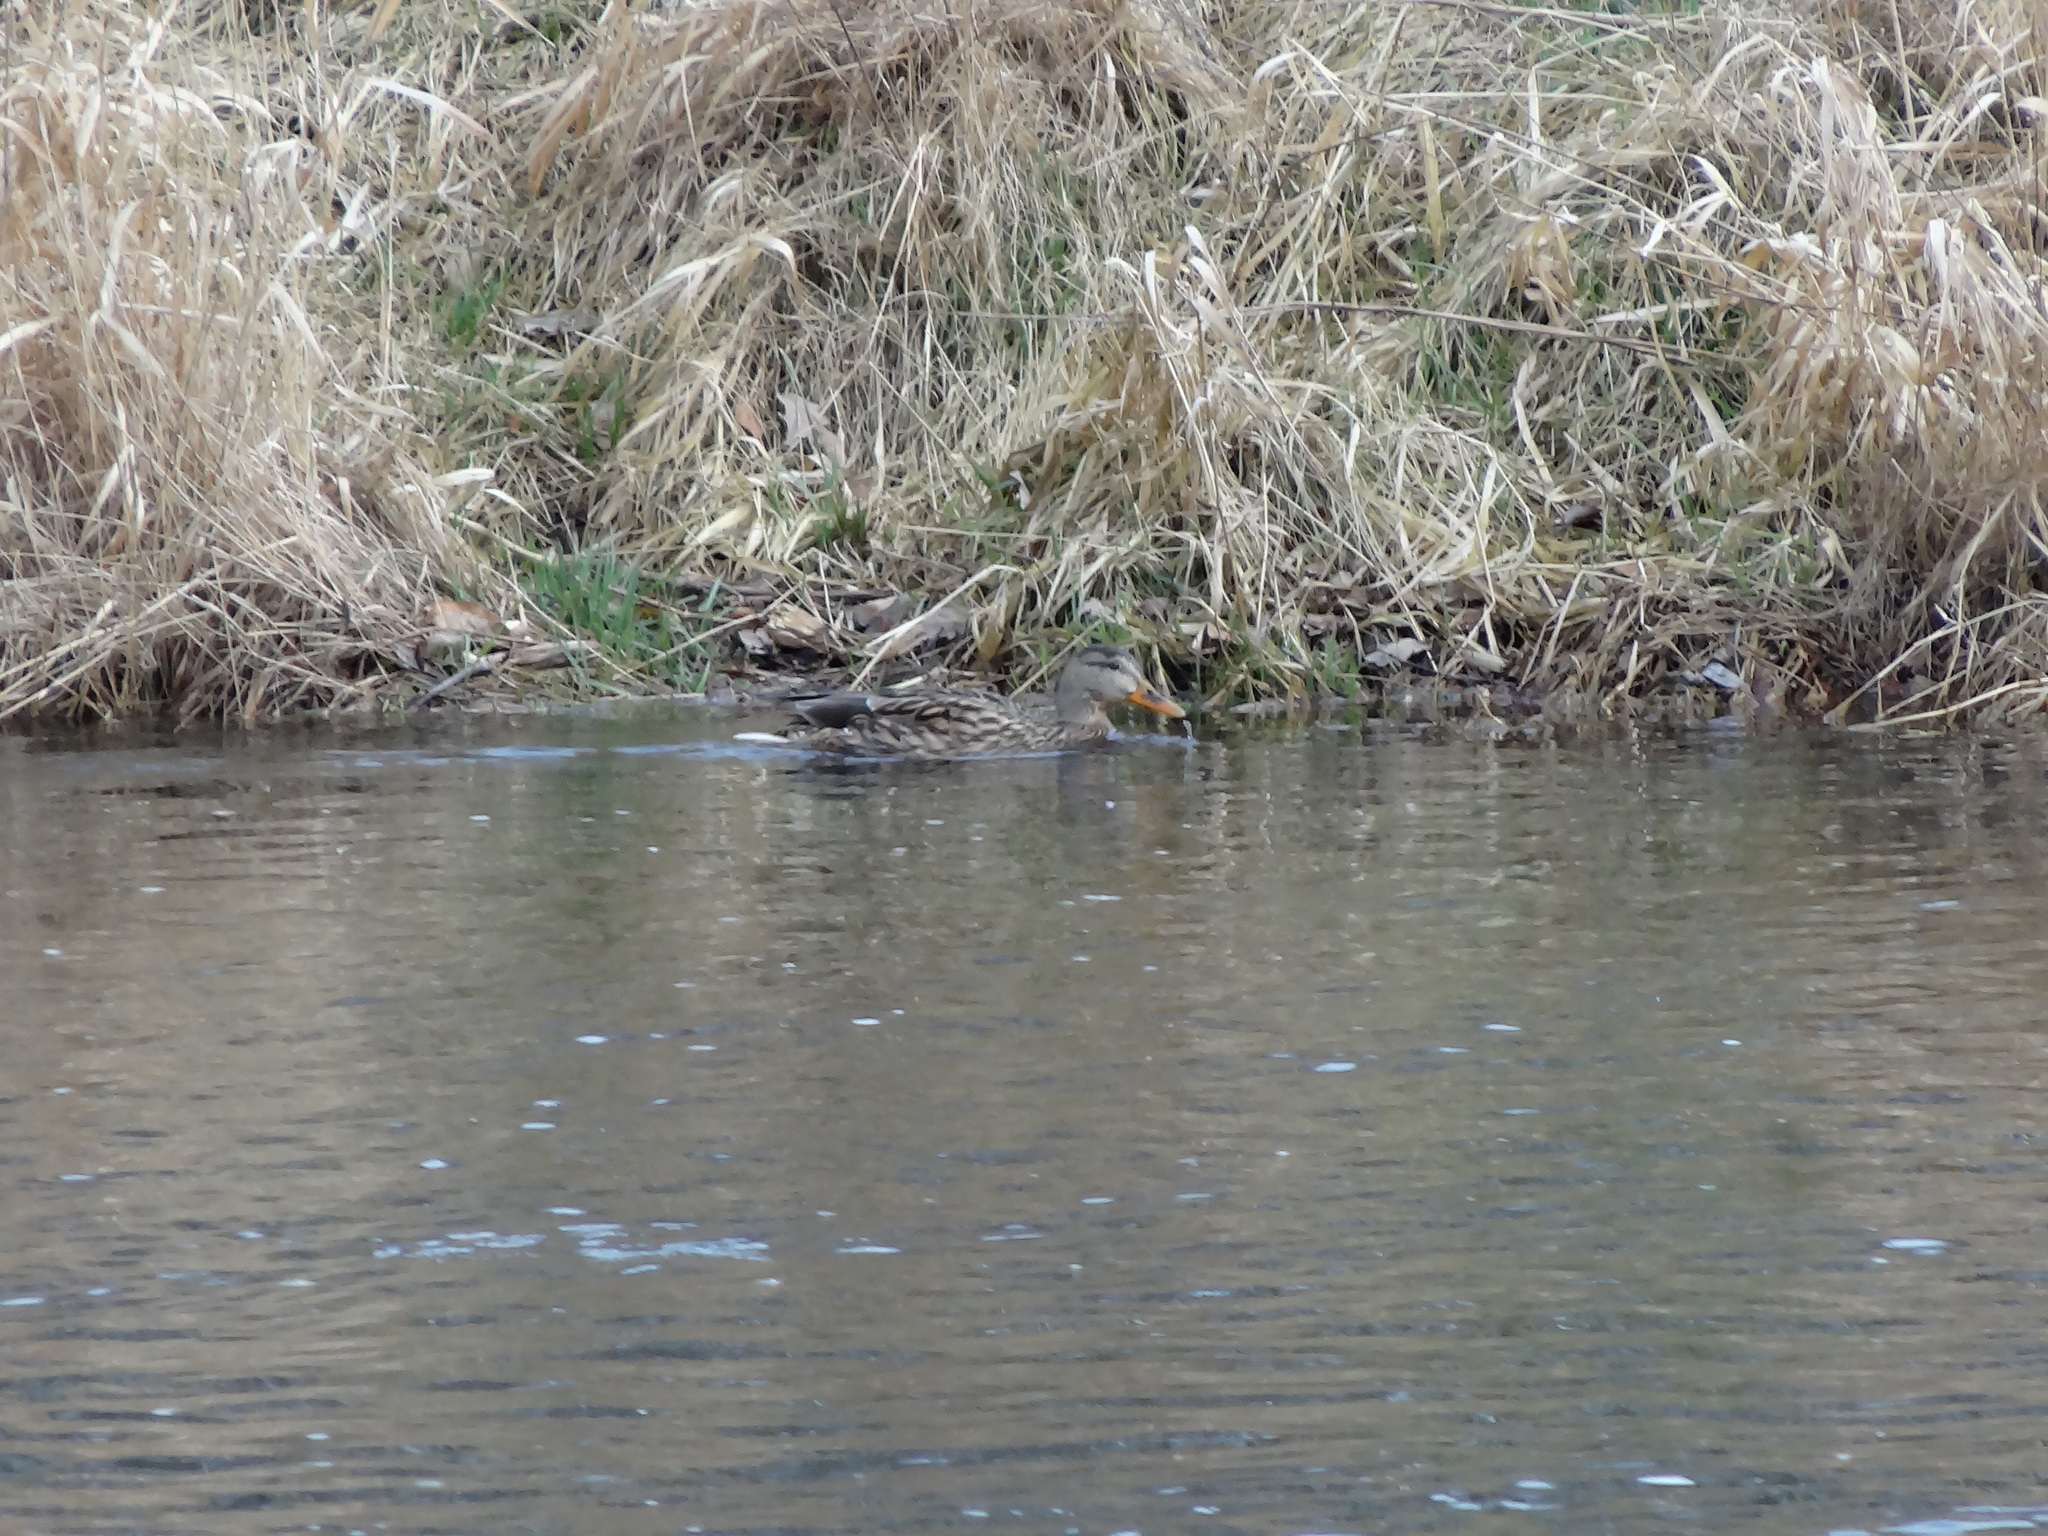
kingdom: Animalia
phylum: Chordata
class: Aves
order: Anseriformes
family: Anatidae
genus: Anas
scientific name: Anas platyrhynchos
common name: Mallard
